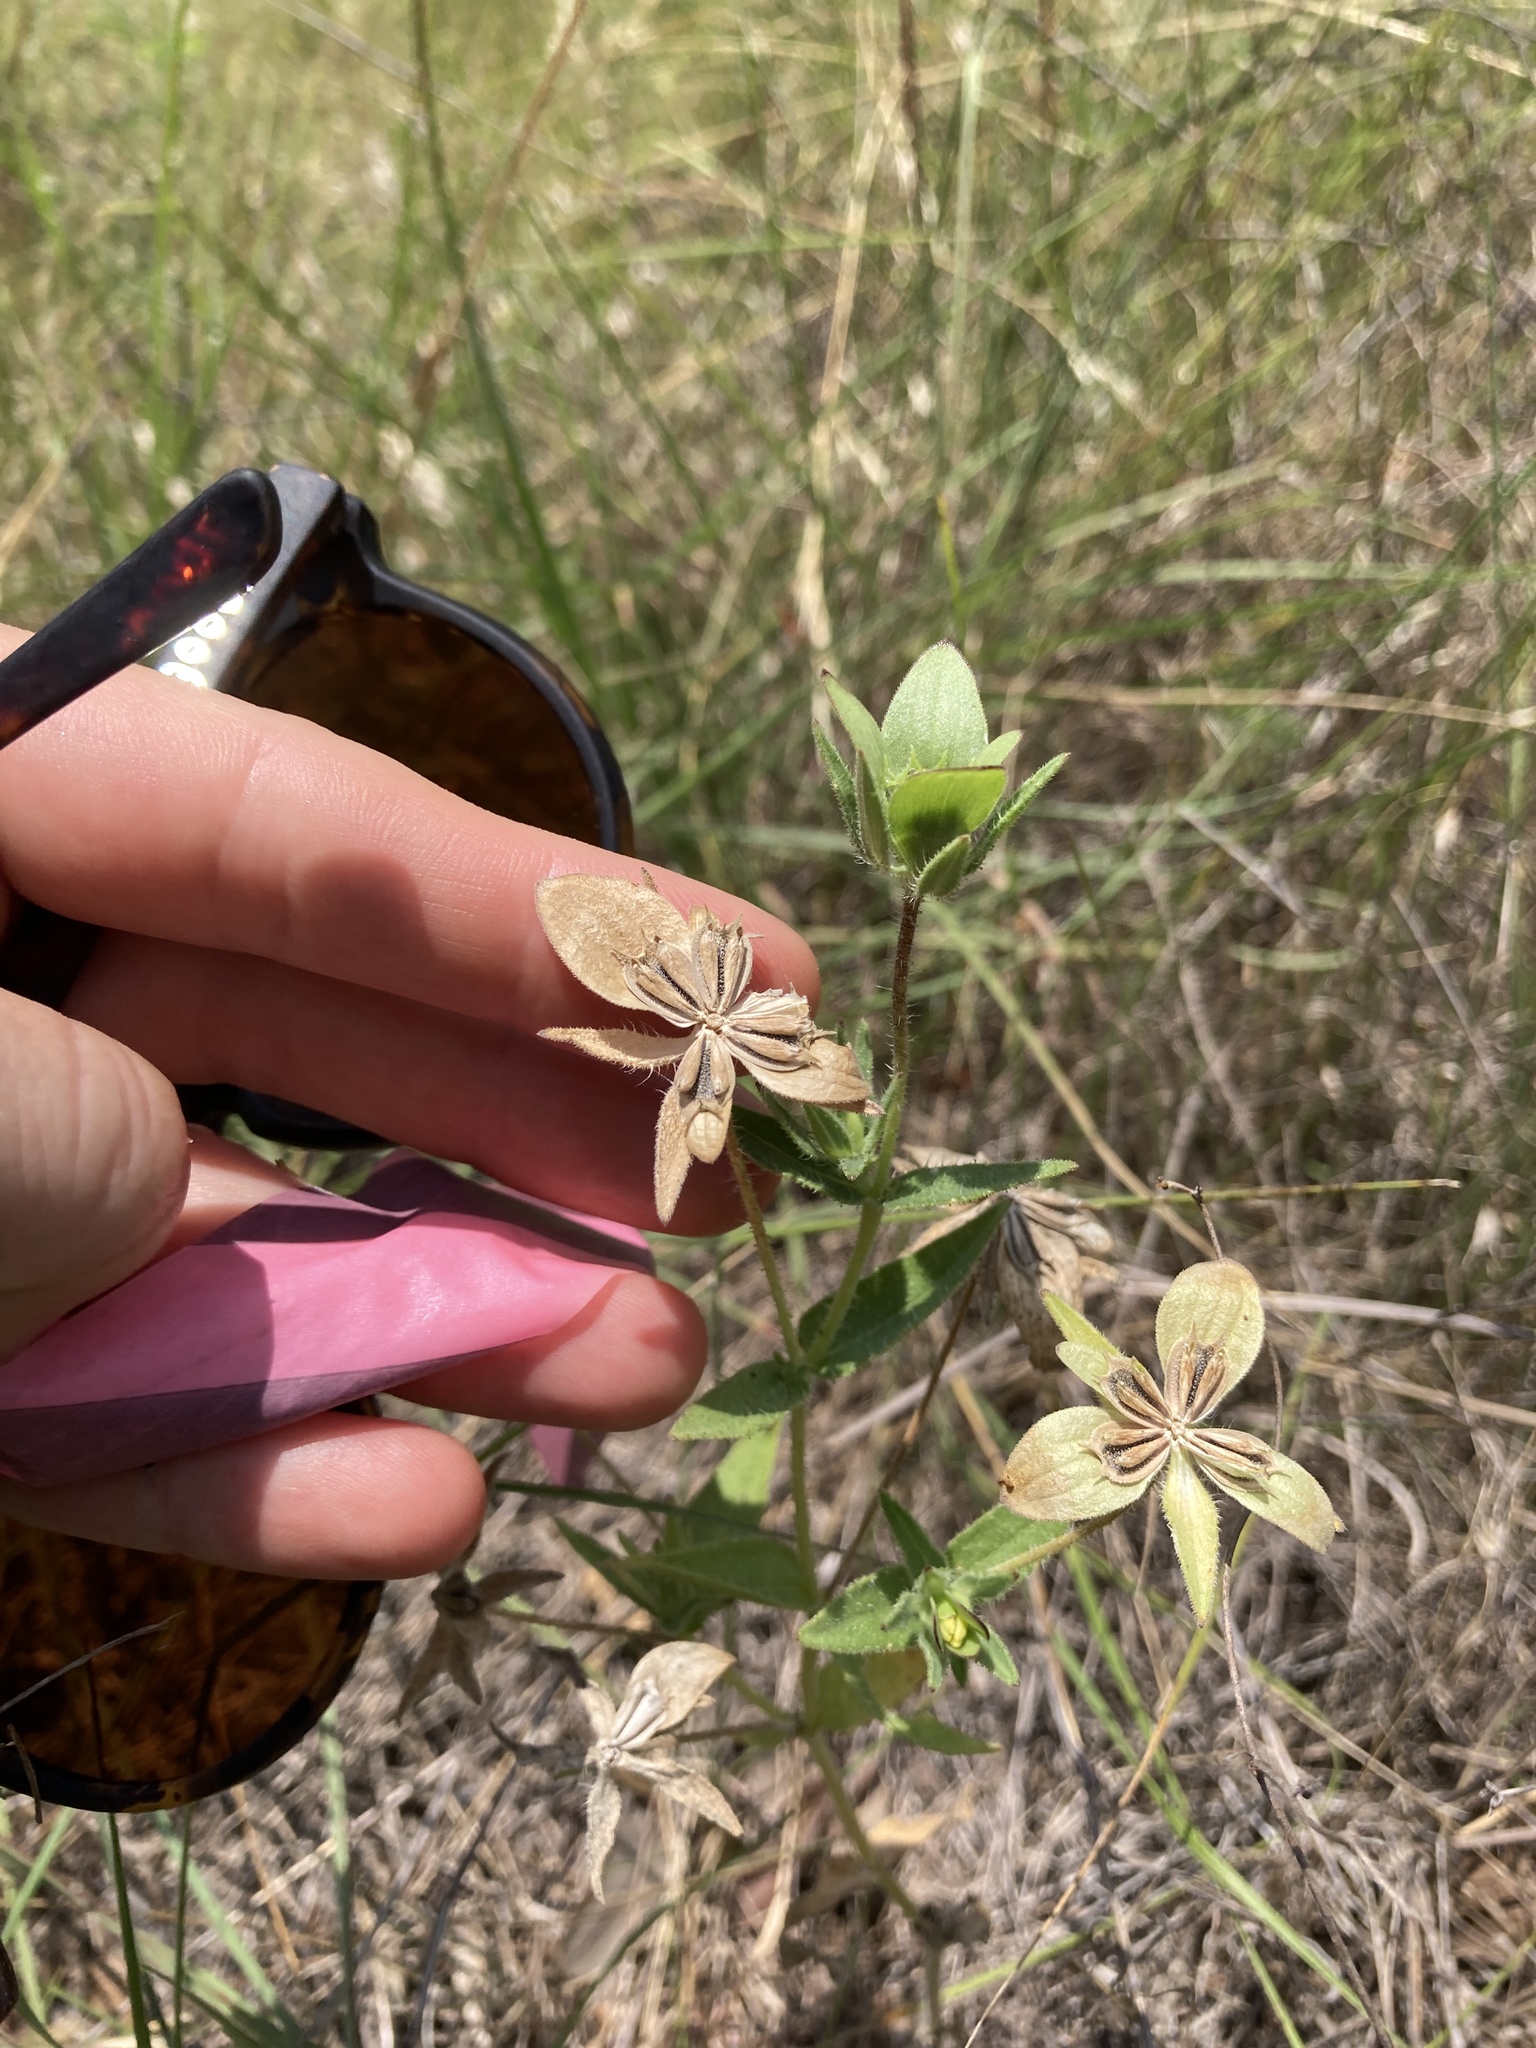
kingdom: Plantae
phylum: Tracheophyta
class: Magnoliopsida
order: Asterales
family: Asteraceae
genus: Lindheimera
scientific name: Lindheimera texana
